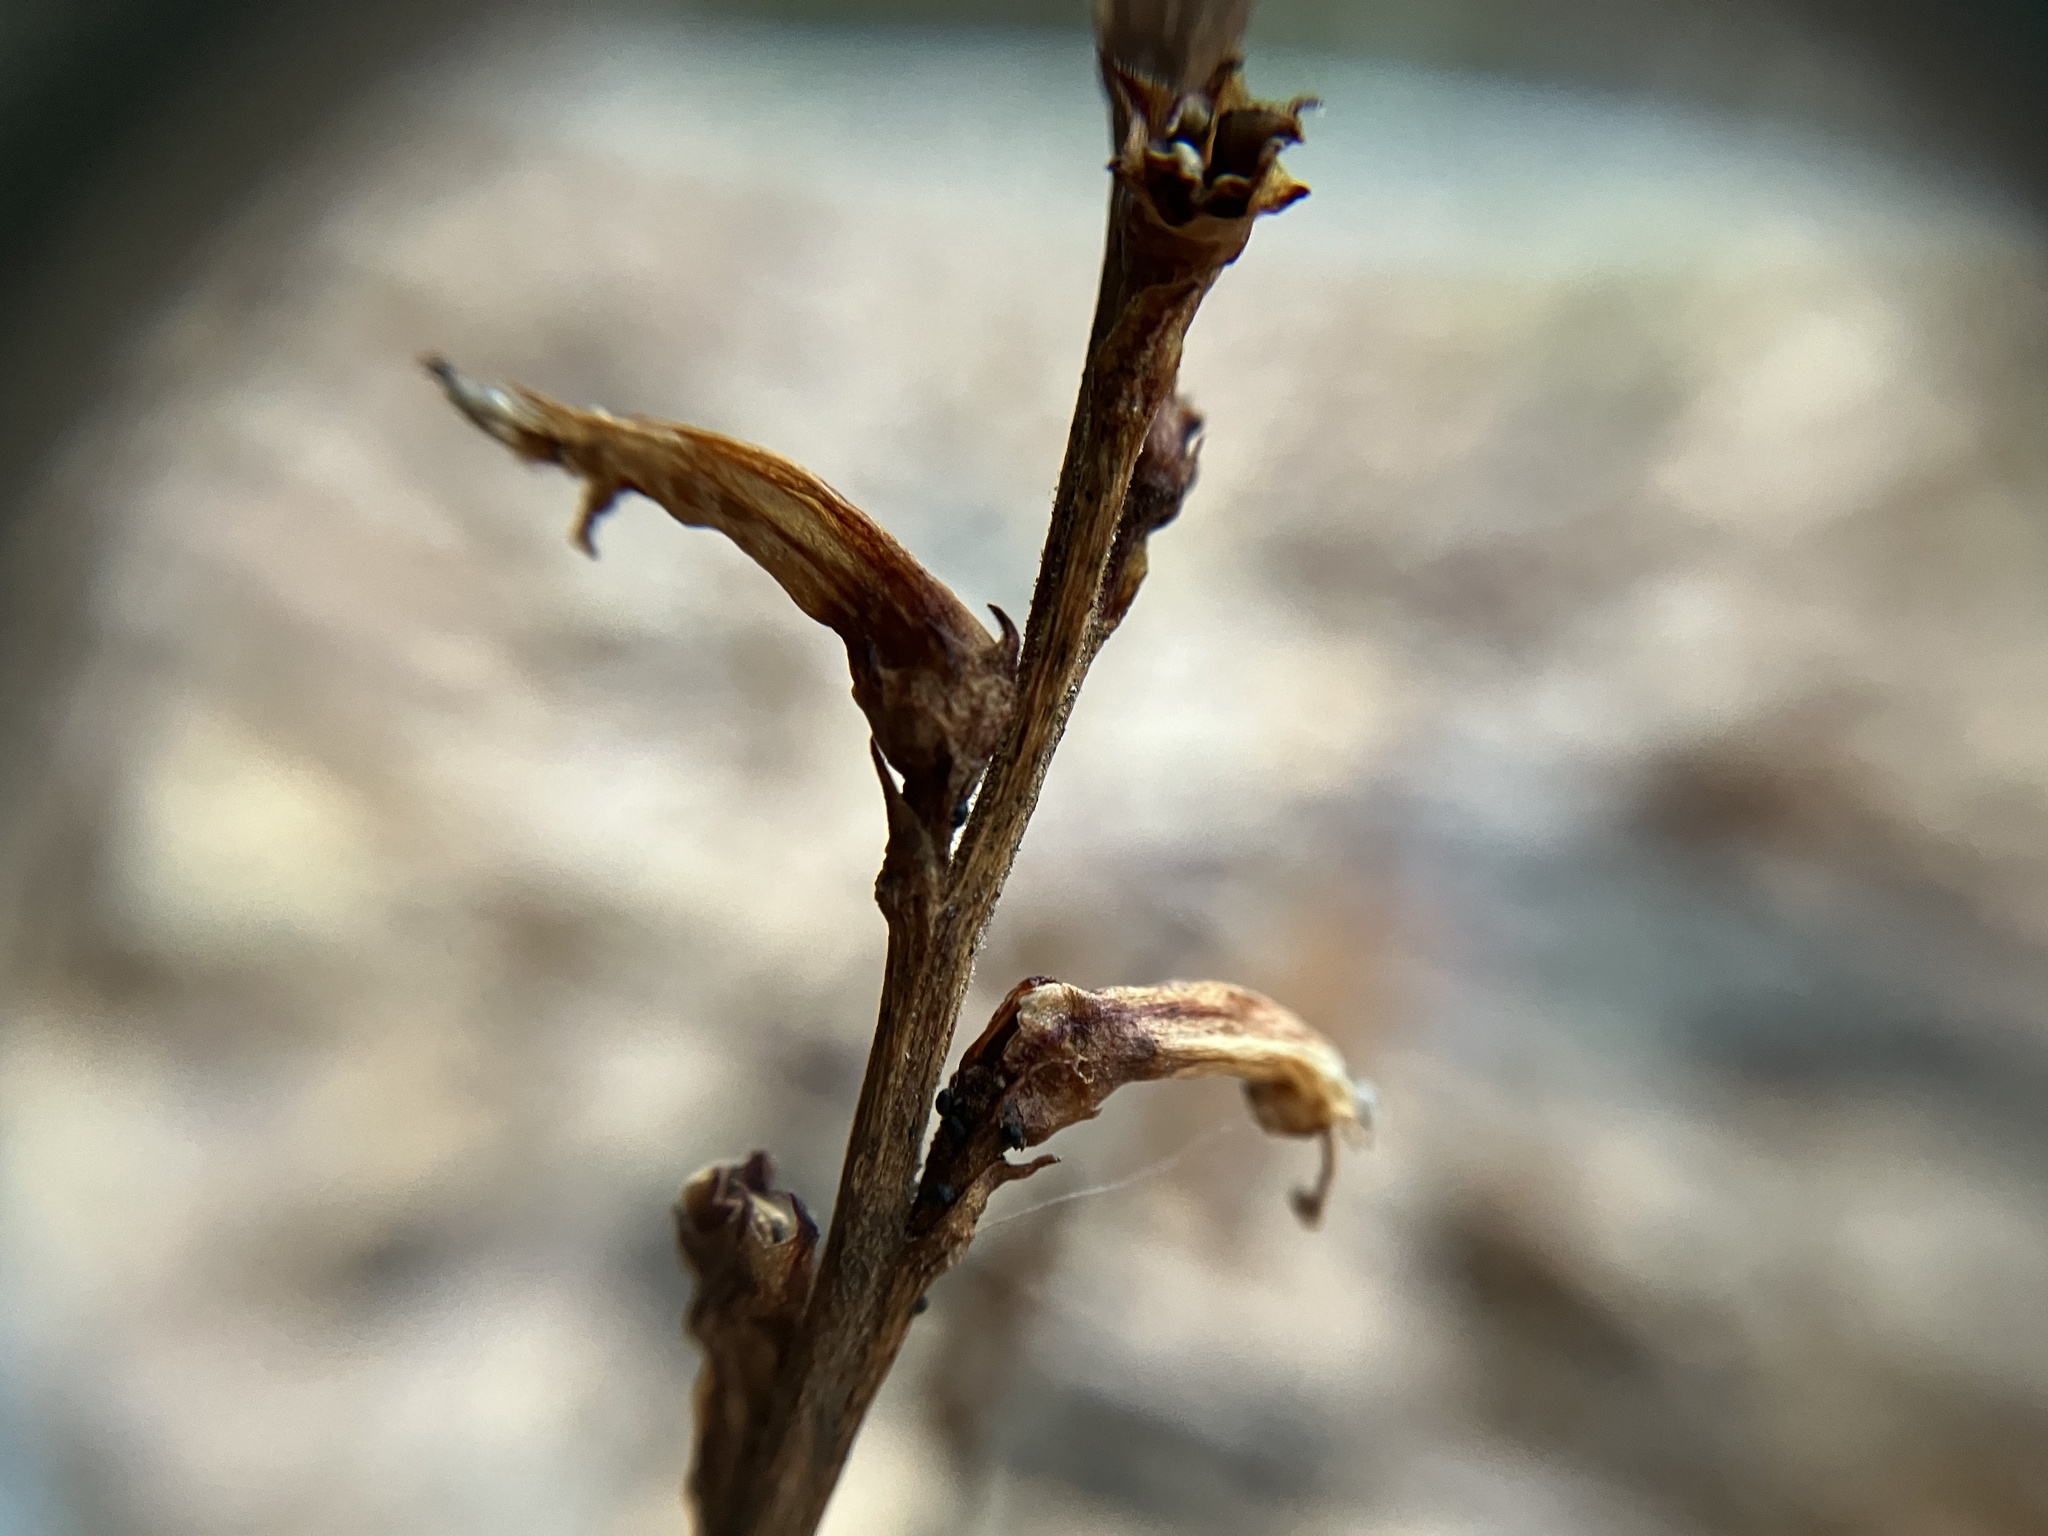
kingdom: Plantae
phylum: Tracheophyta
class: Magnoliopsida
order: Lamiales
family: Orobanchaceae
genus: Epifagus
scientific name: Epifagus virginiana
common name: Beechdrops
